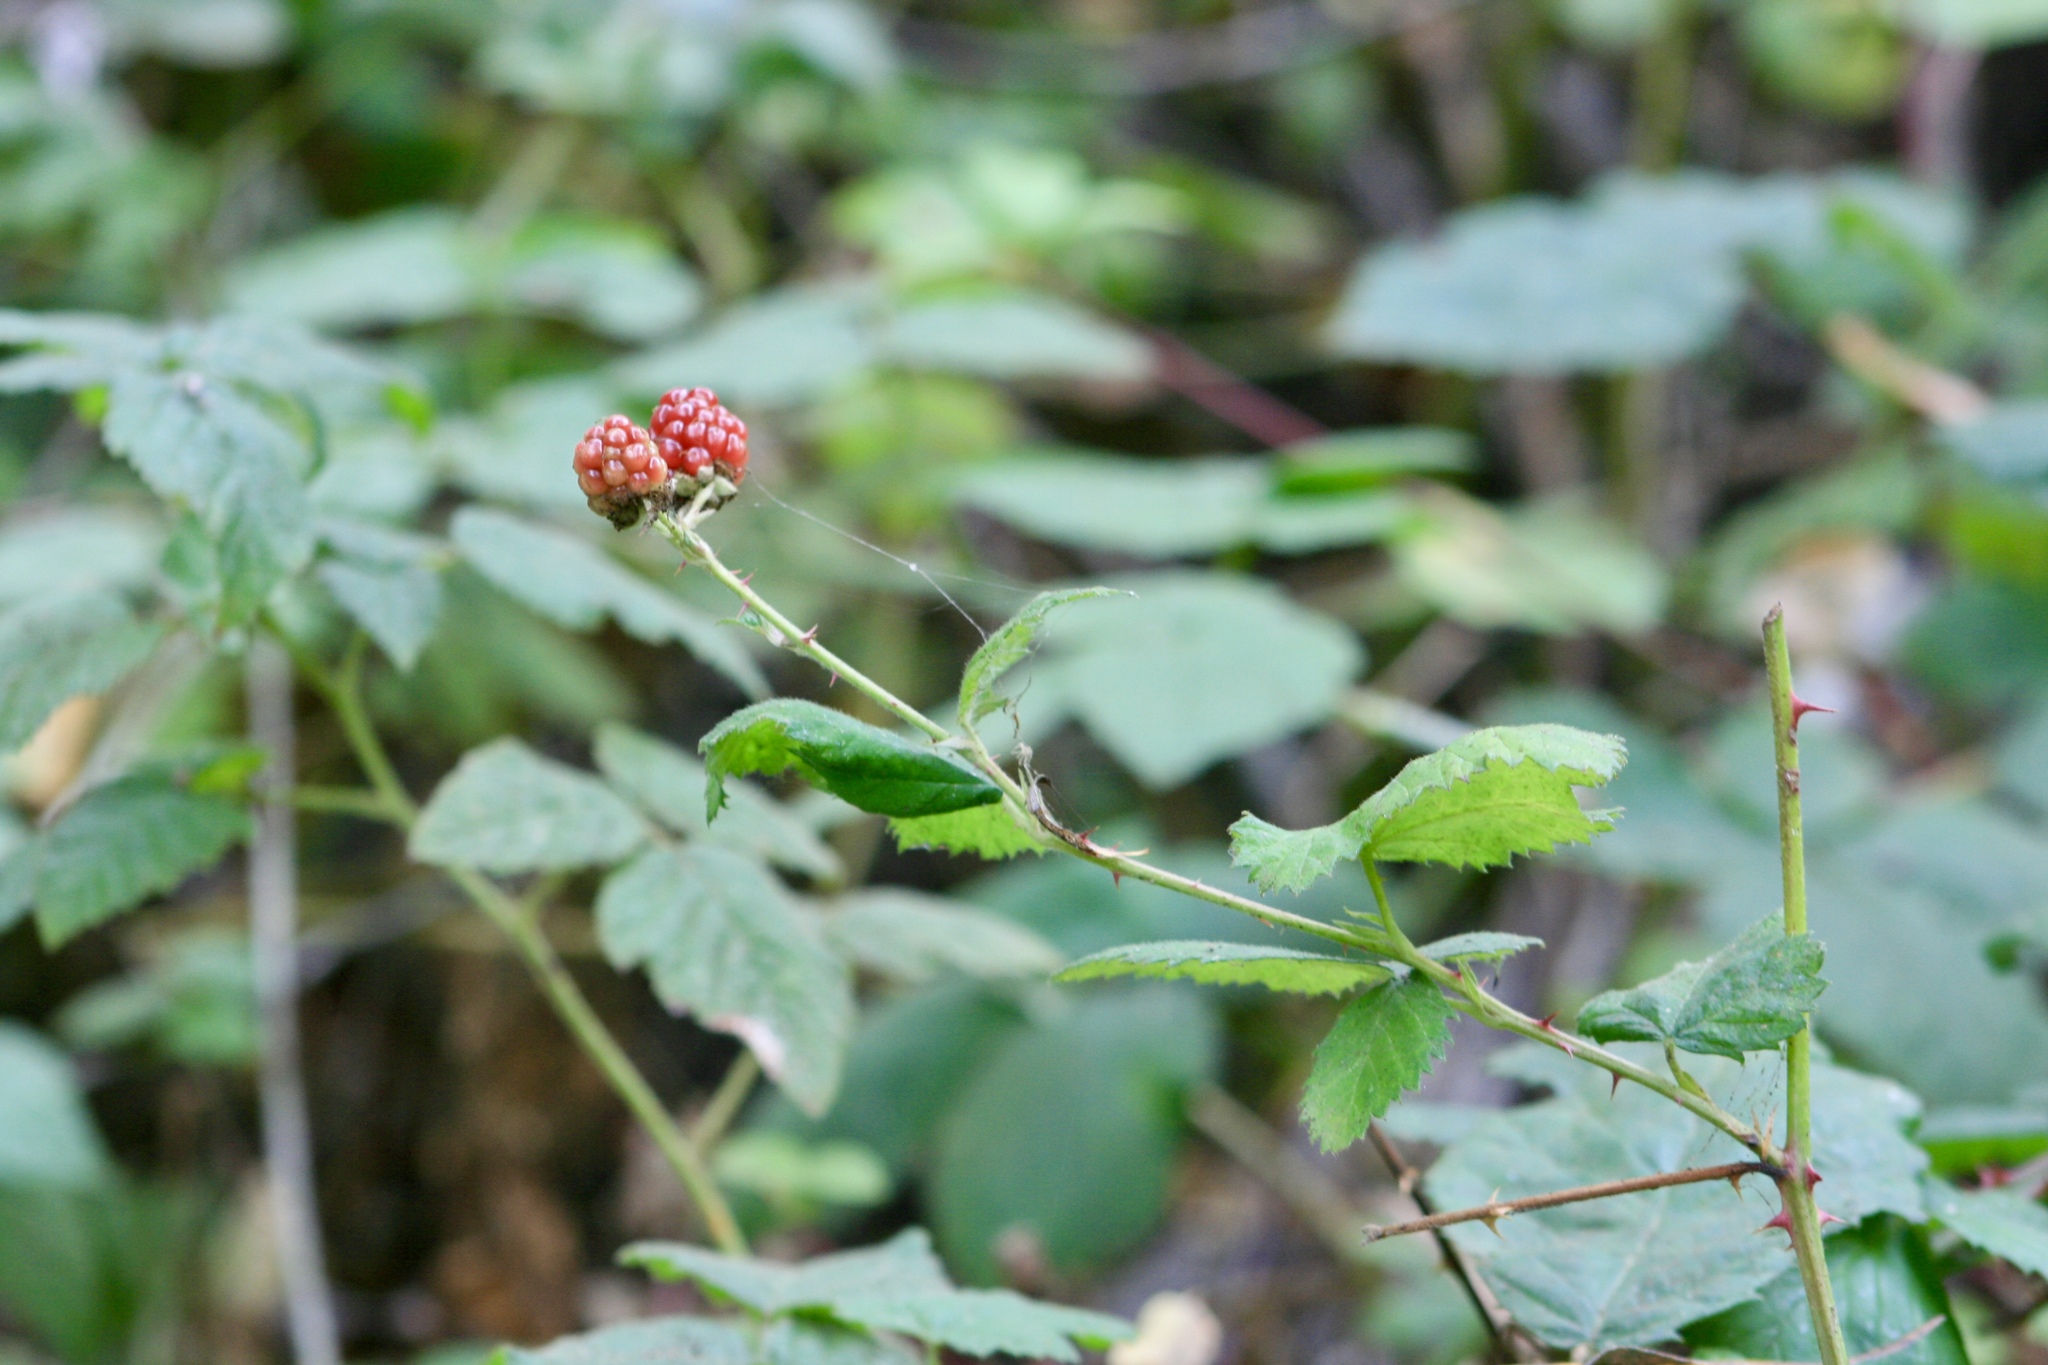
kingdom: Plantae
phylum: Tracheophyta
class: Magnoliopsida
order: Rosales
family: Rosaceae
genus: Rubus
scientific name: Rubus ursinus
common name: Pacific blackberry
